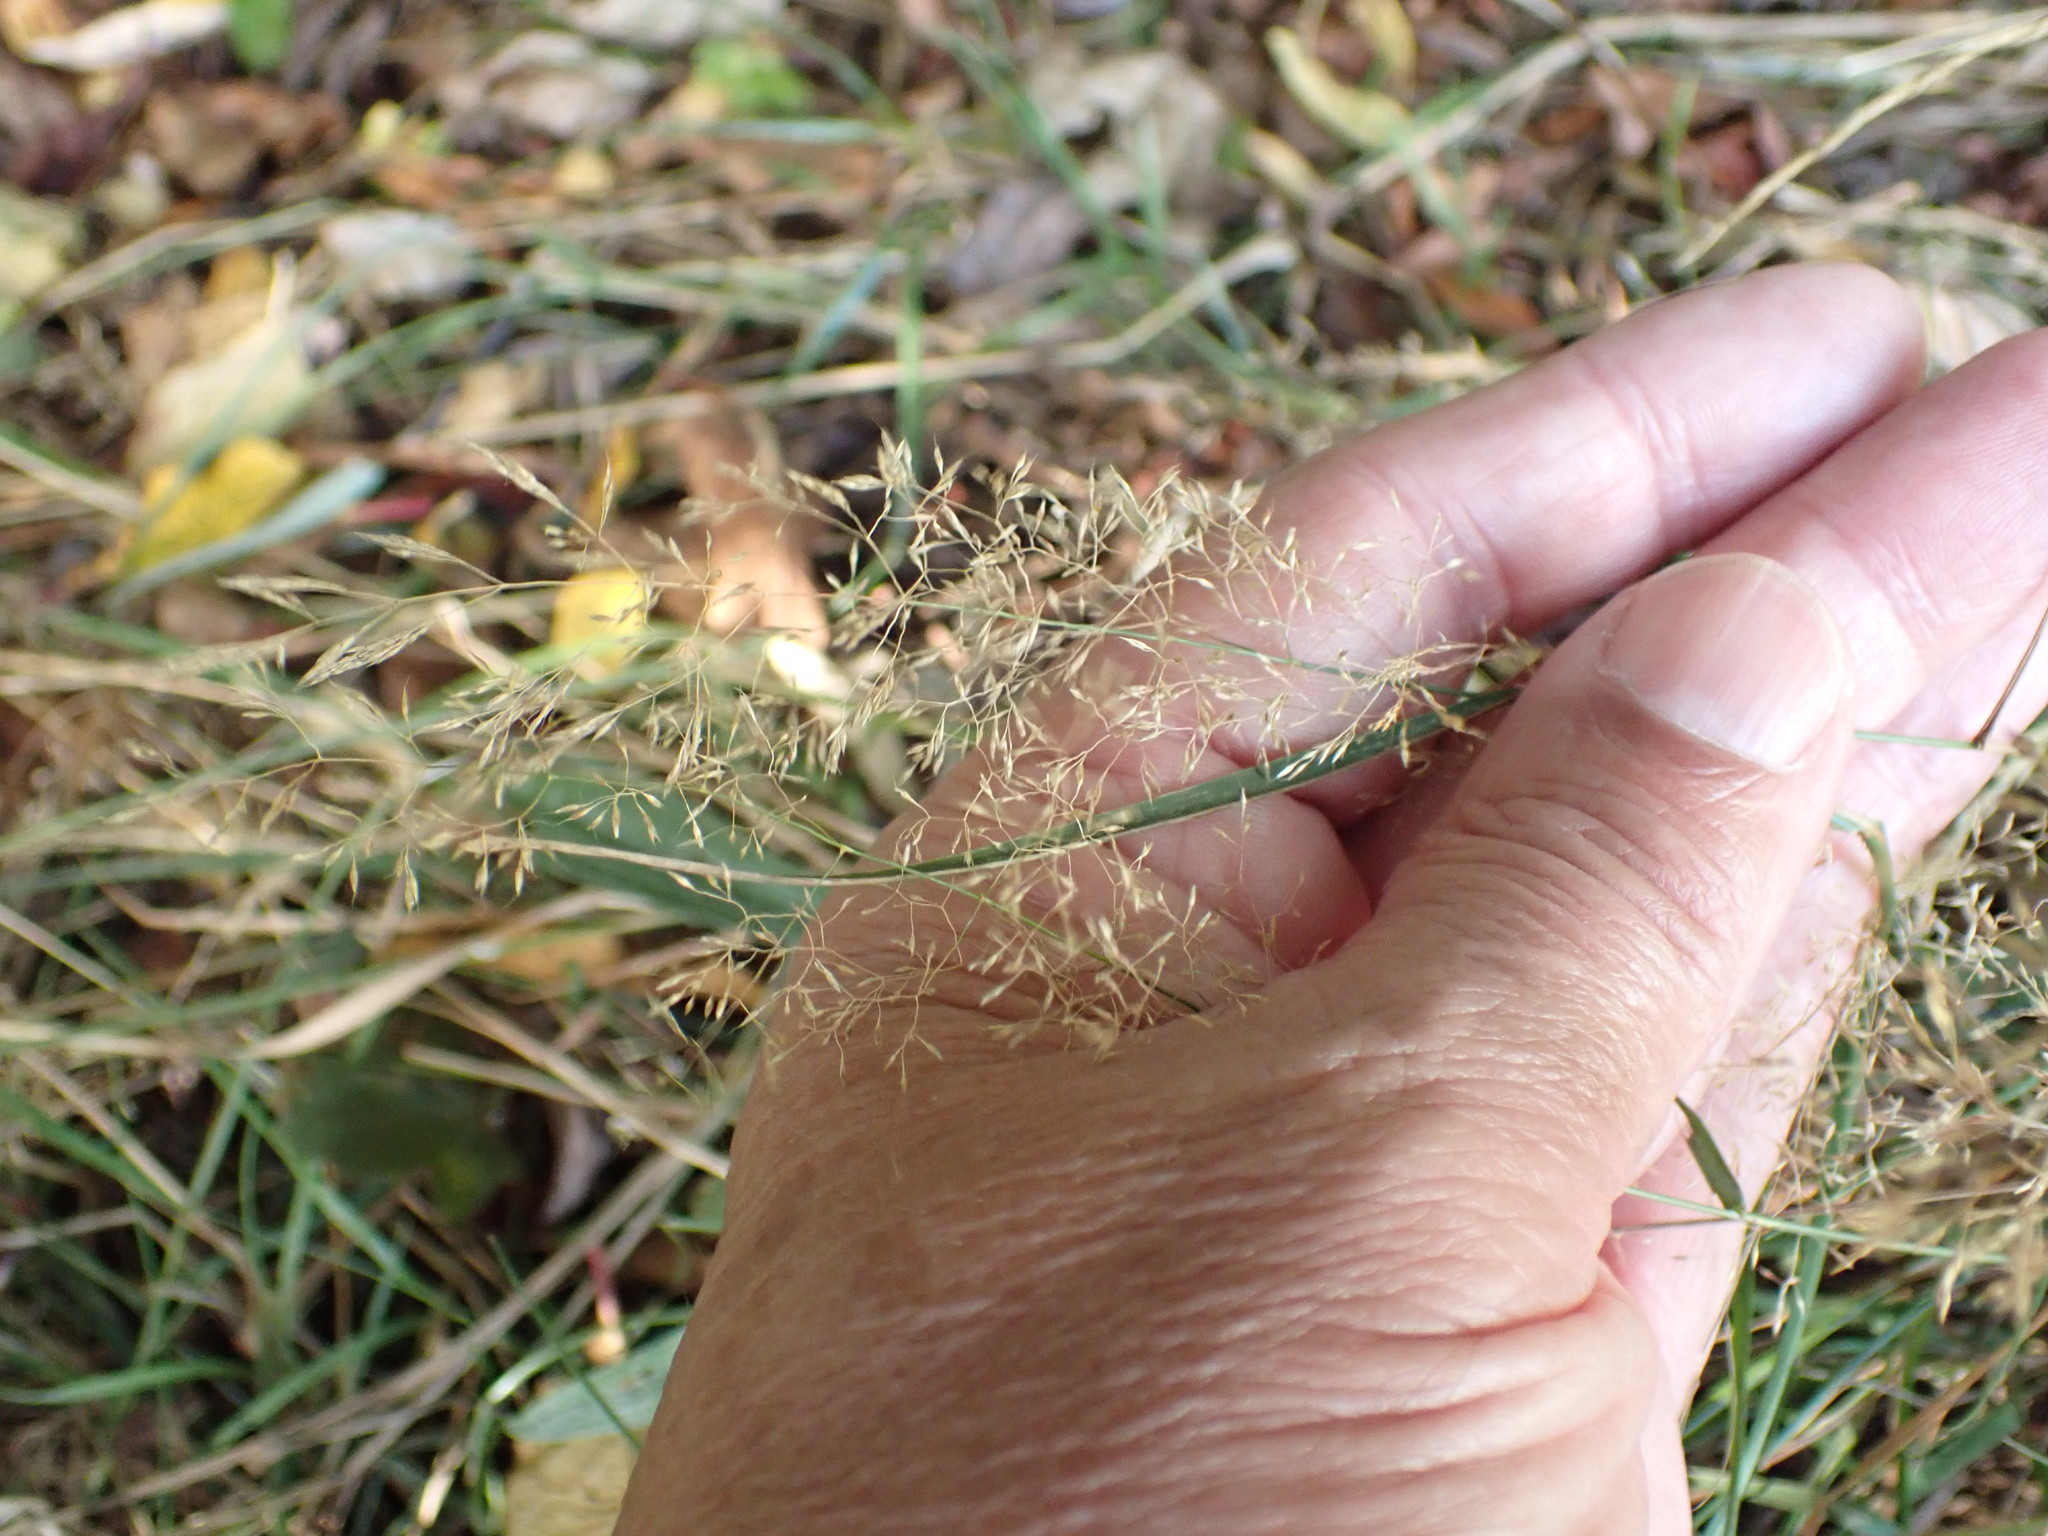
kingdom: Plantae
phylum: Tracheophyta
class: Liliopsida
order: Poales
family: Poaceae
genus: Agrostis
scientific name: Agrostis capillaris
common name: Colonial bentgrass
